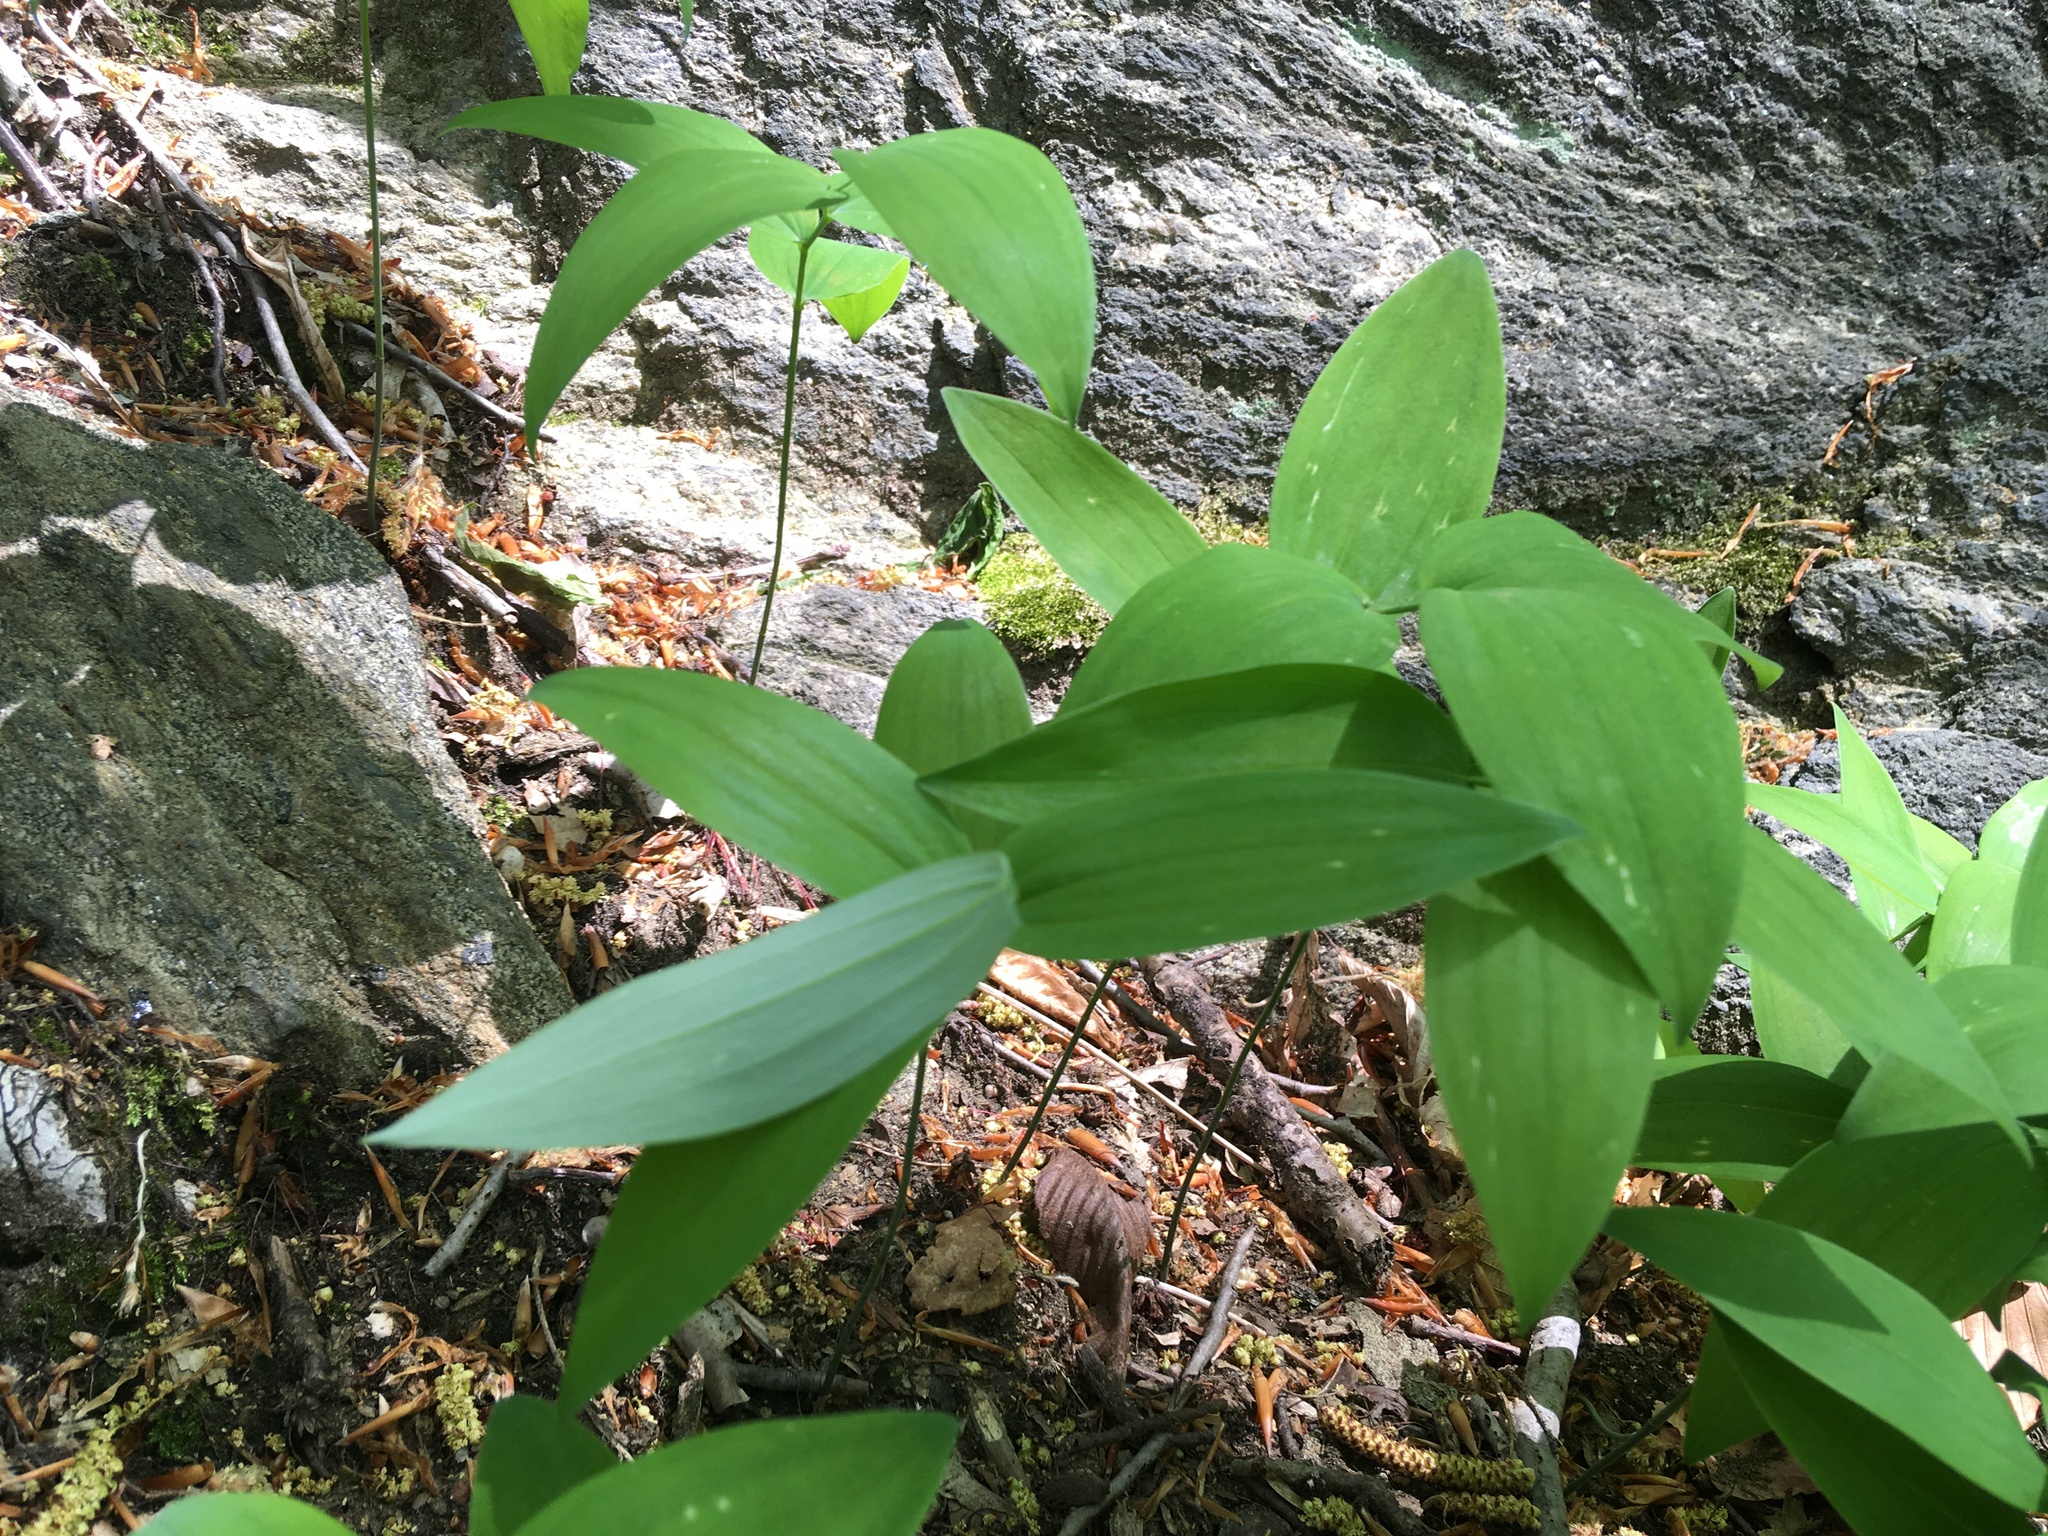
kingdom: Plantae
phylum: Tracheophyta
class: Liliopsida
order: Asparagales
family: Asparagaceae
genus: Polygonatum
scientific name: Polygonatum pubescens
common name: Downy solomon's seal
